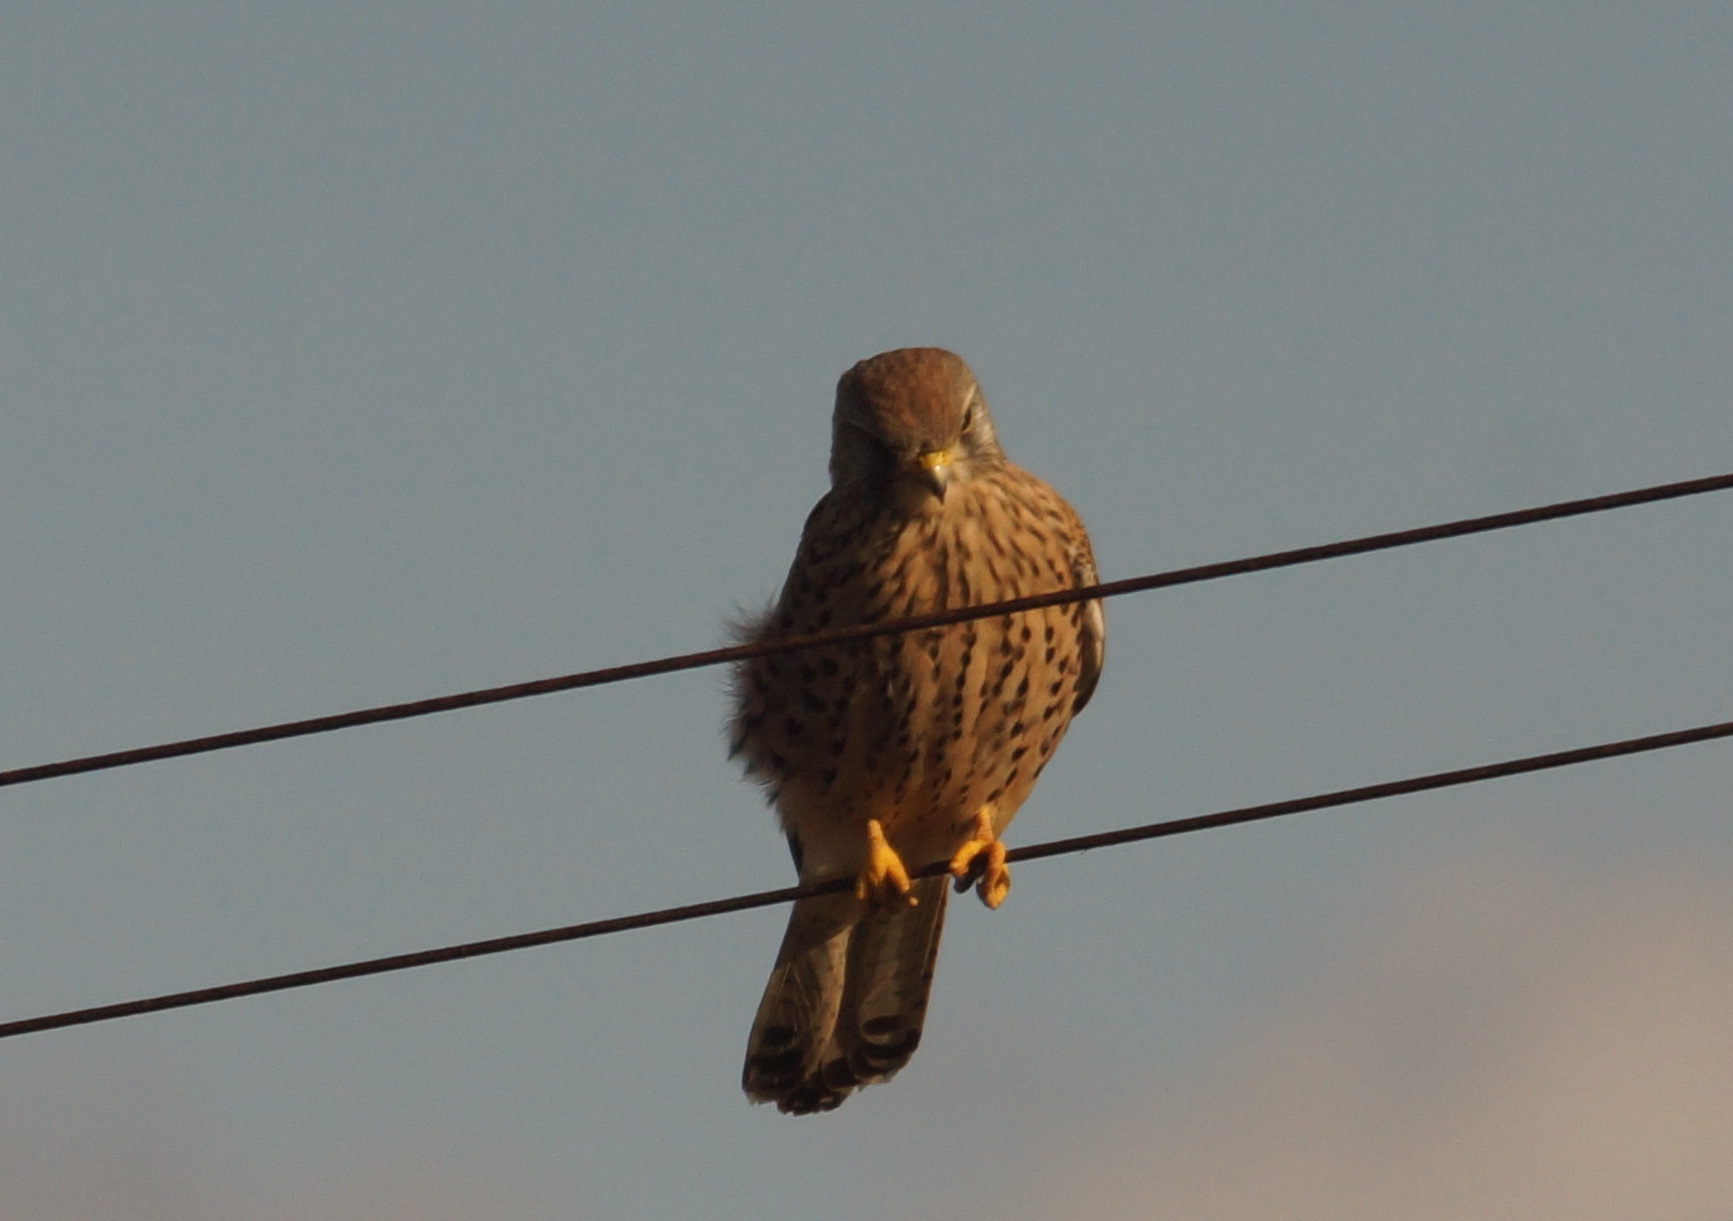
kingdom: Animalia
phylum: Chordata
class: Aves
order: Falconiformes
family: Falconidae
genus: Falco
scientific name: Falco tinnunculus
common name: Common kestrel
